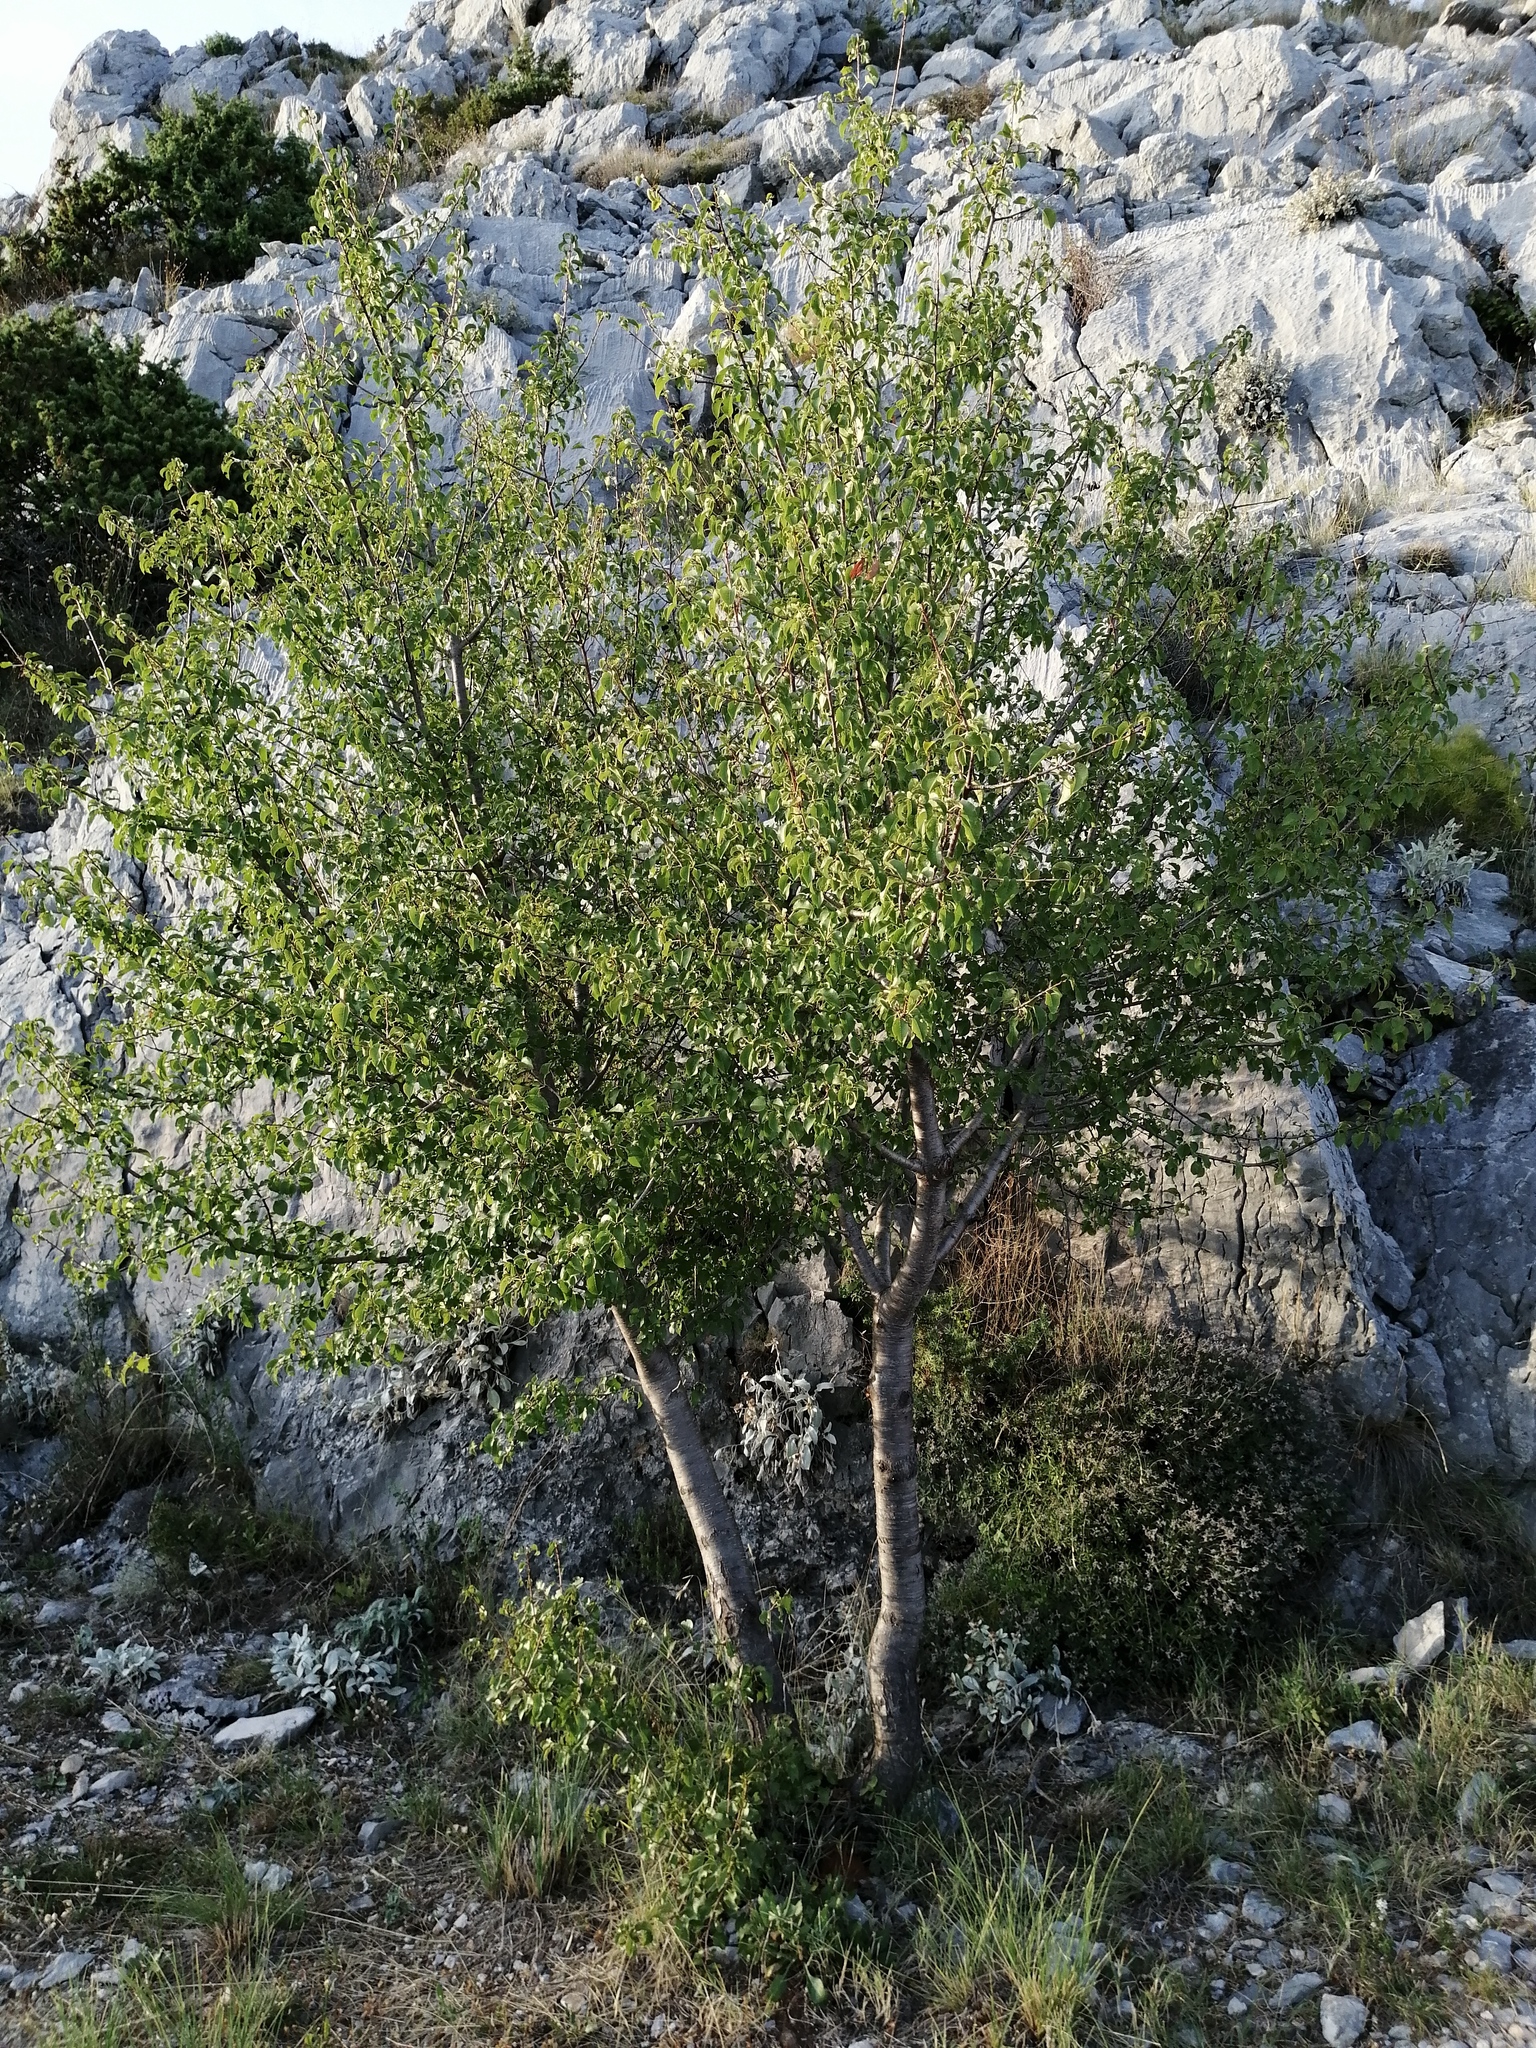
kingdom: Plantae
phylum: Tracheophyta
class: Magnoliopsida
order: Rosales
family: Rosaceae
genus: Prunus
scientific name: Prunus mahaleb
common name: Mahaleb cherry
